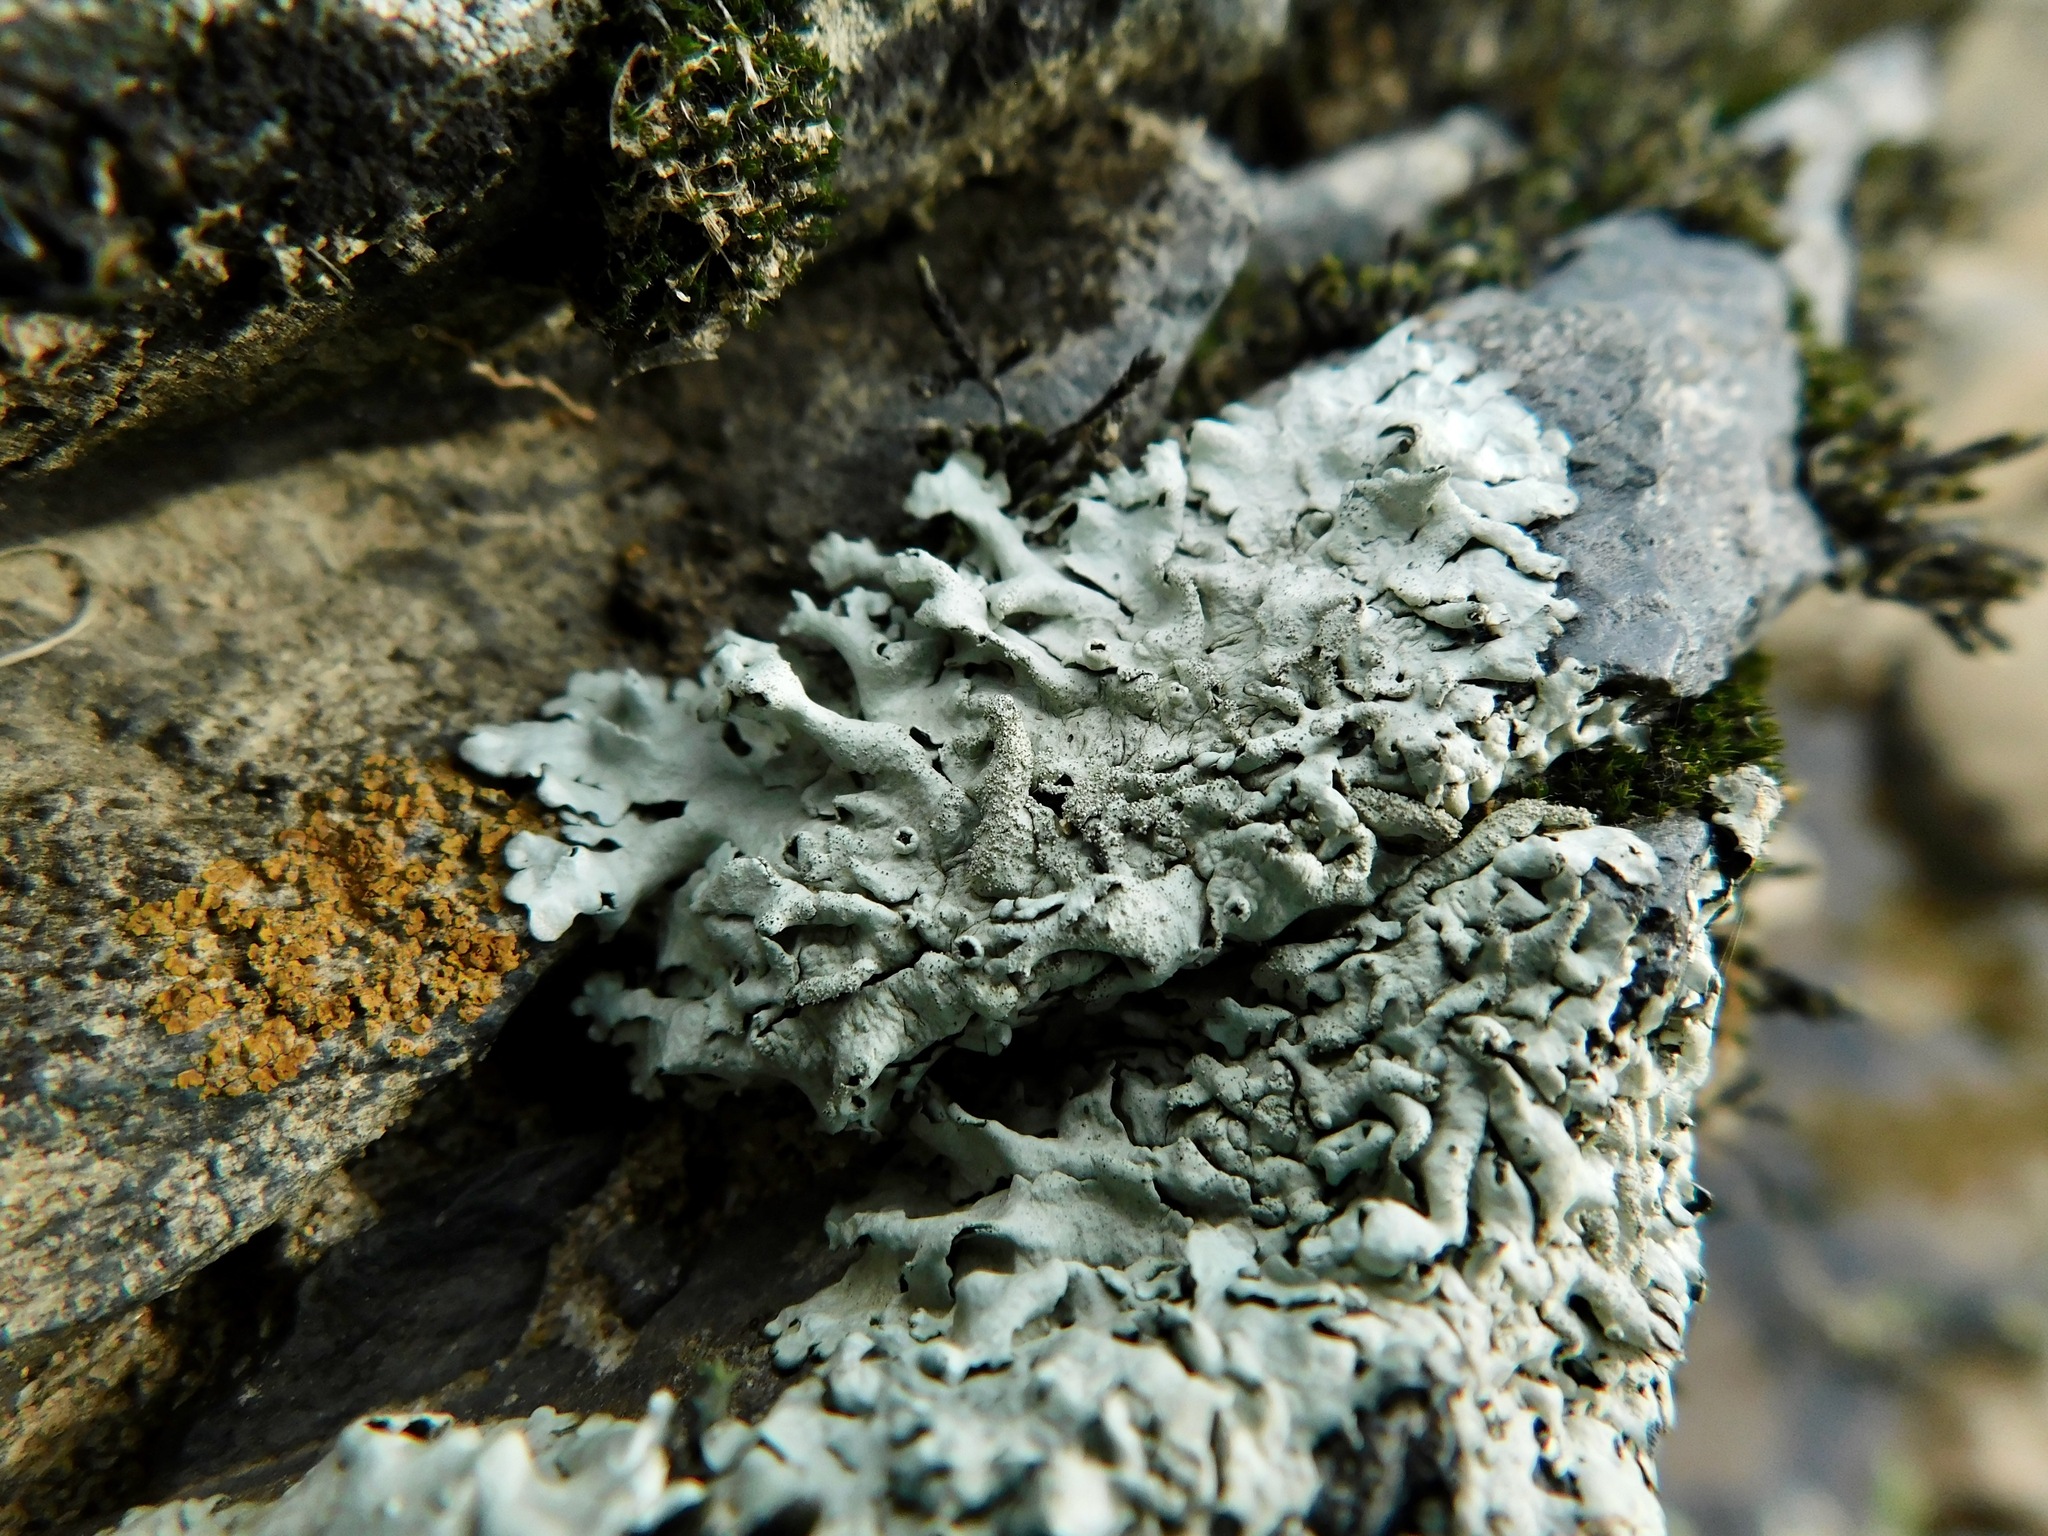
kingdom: Fungi
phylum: Ascomycota
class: Lecanoromycetes
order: Lecanorales
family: Parmeliaceae
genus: Xanthoparmelia
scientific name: Xanthoparmelia conspersa
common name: Peppered rock shield
